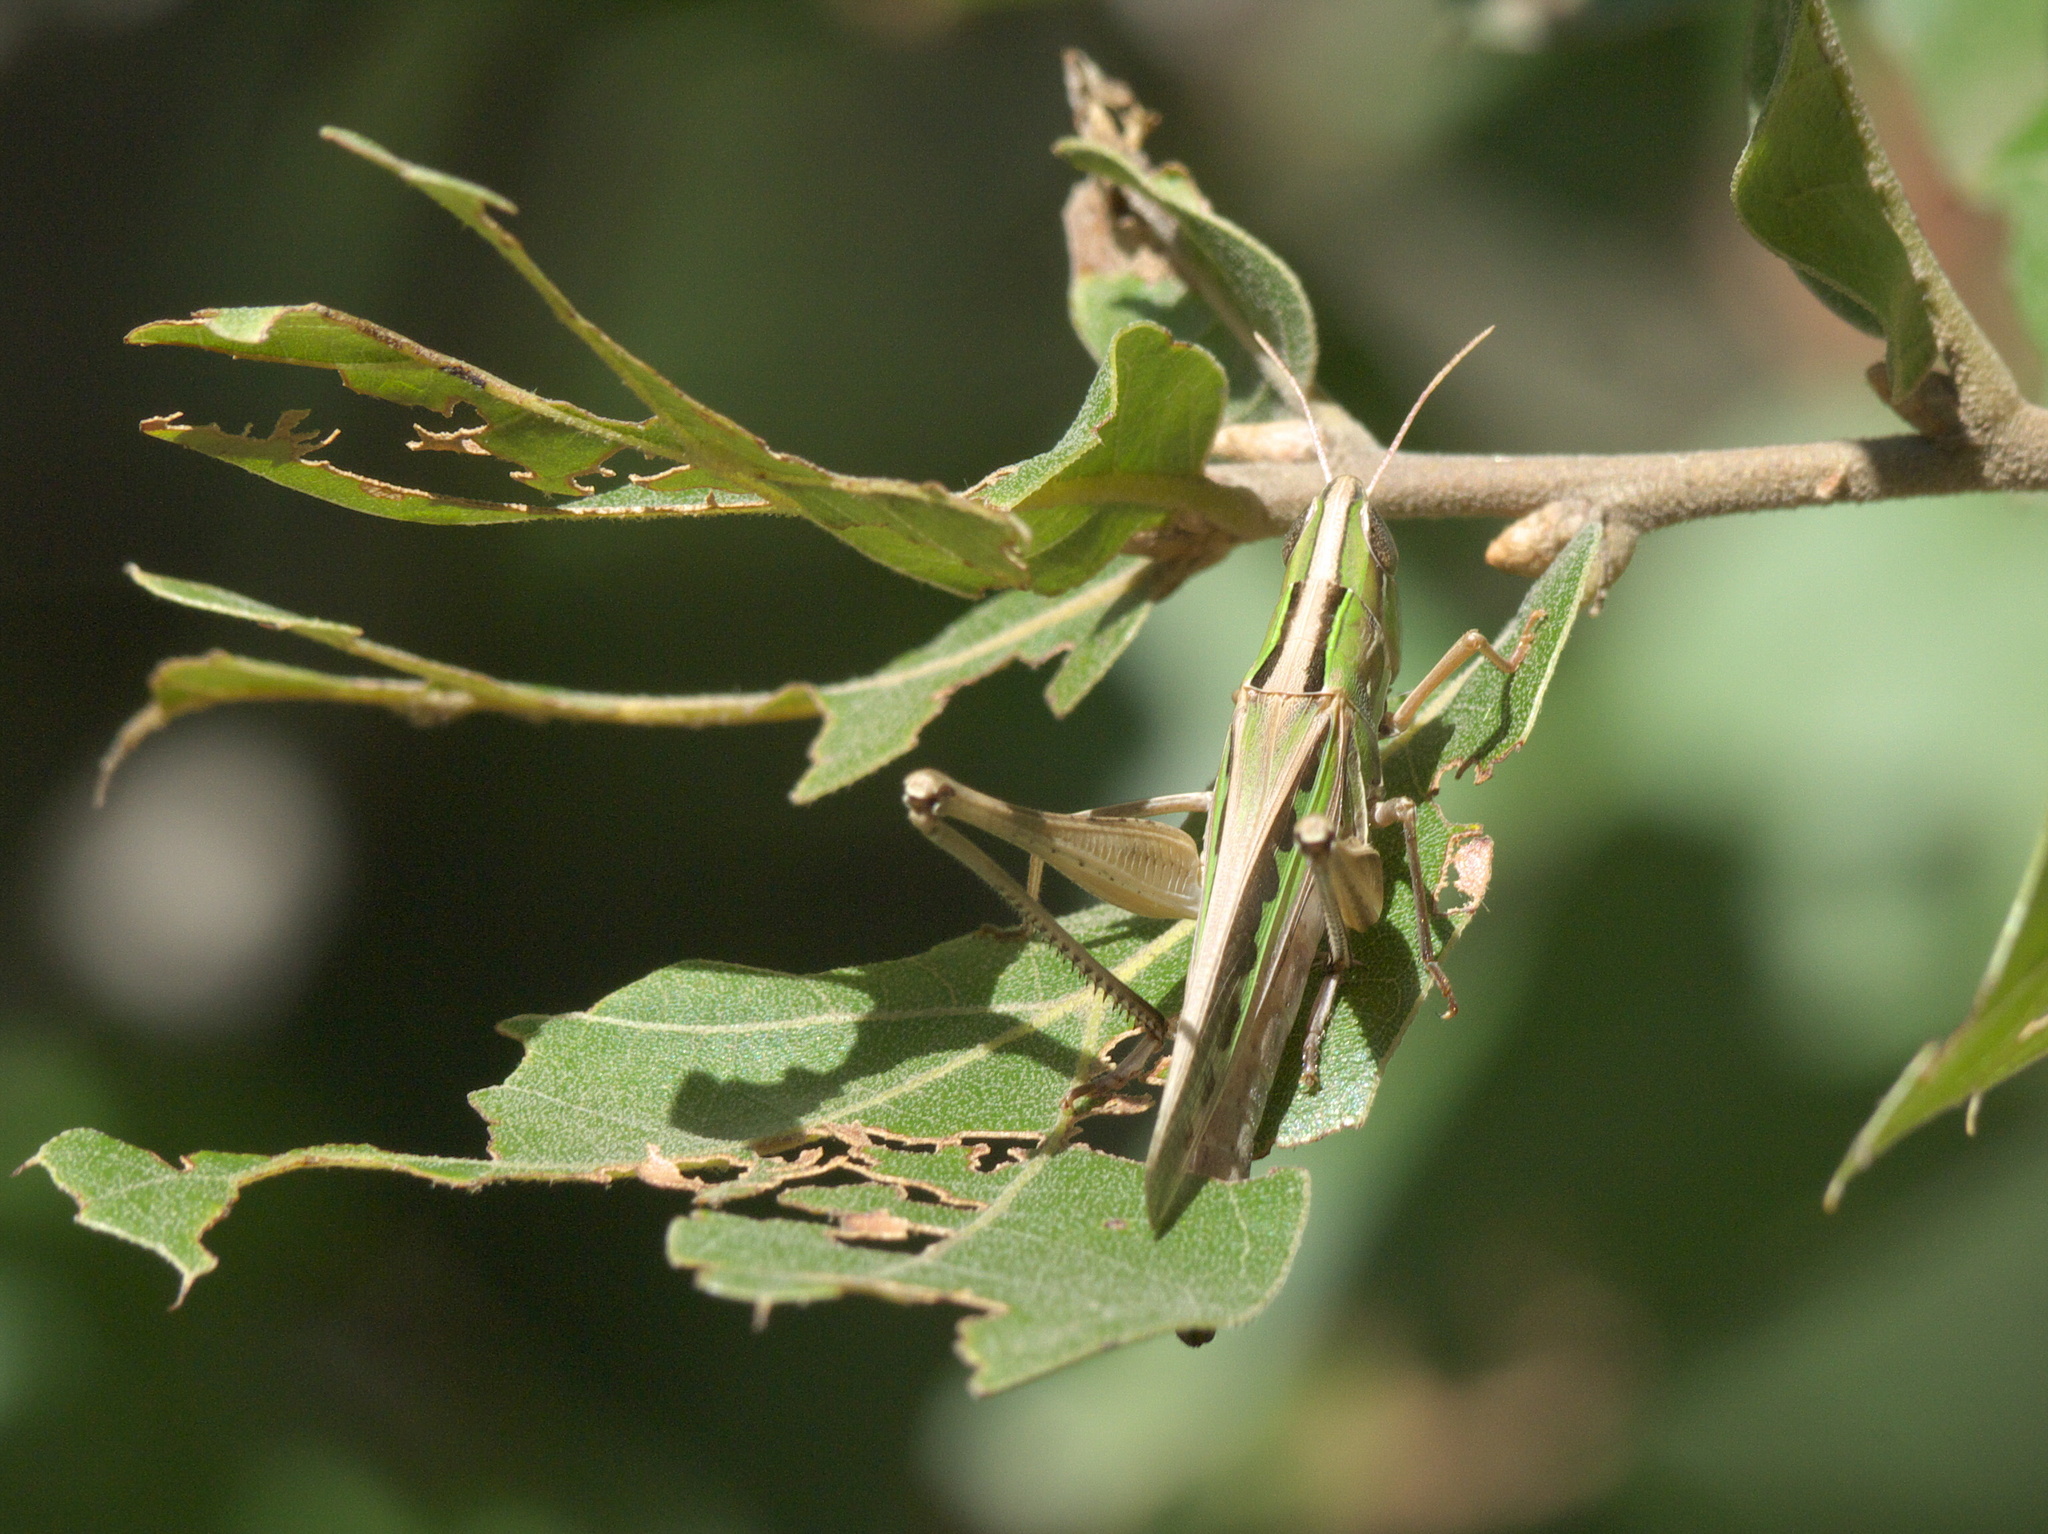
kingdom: Animalia
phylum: Arthropoda
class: Insecta
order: Orthoptera
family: Acrididae
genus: Syrbula
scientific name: Syrbula admirabilis
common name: Handsome grasshopper
